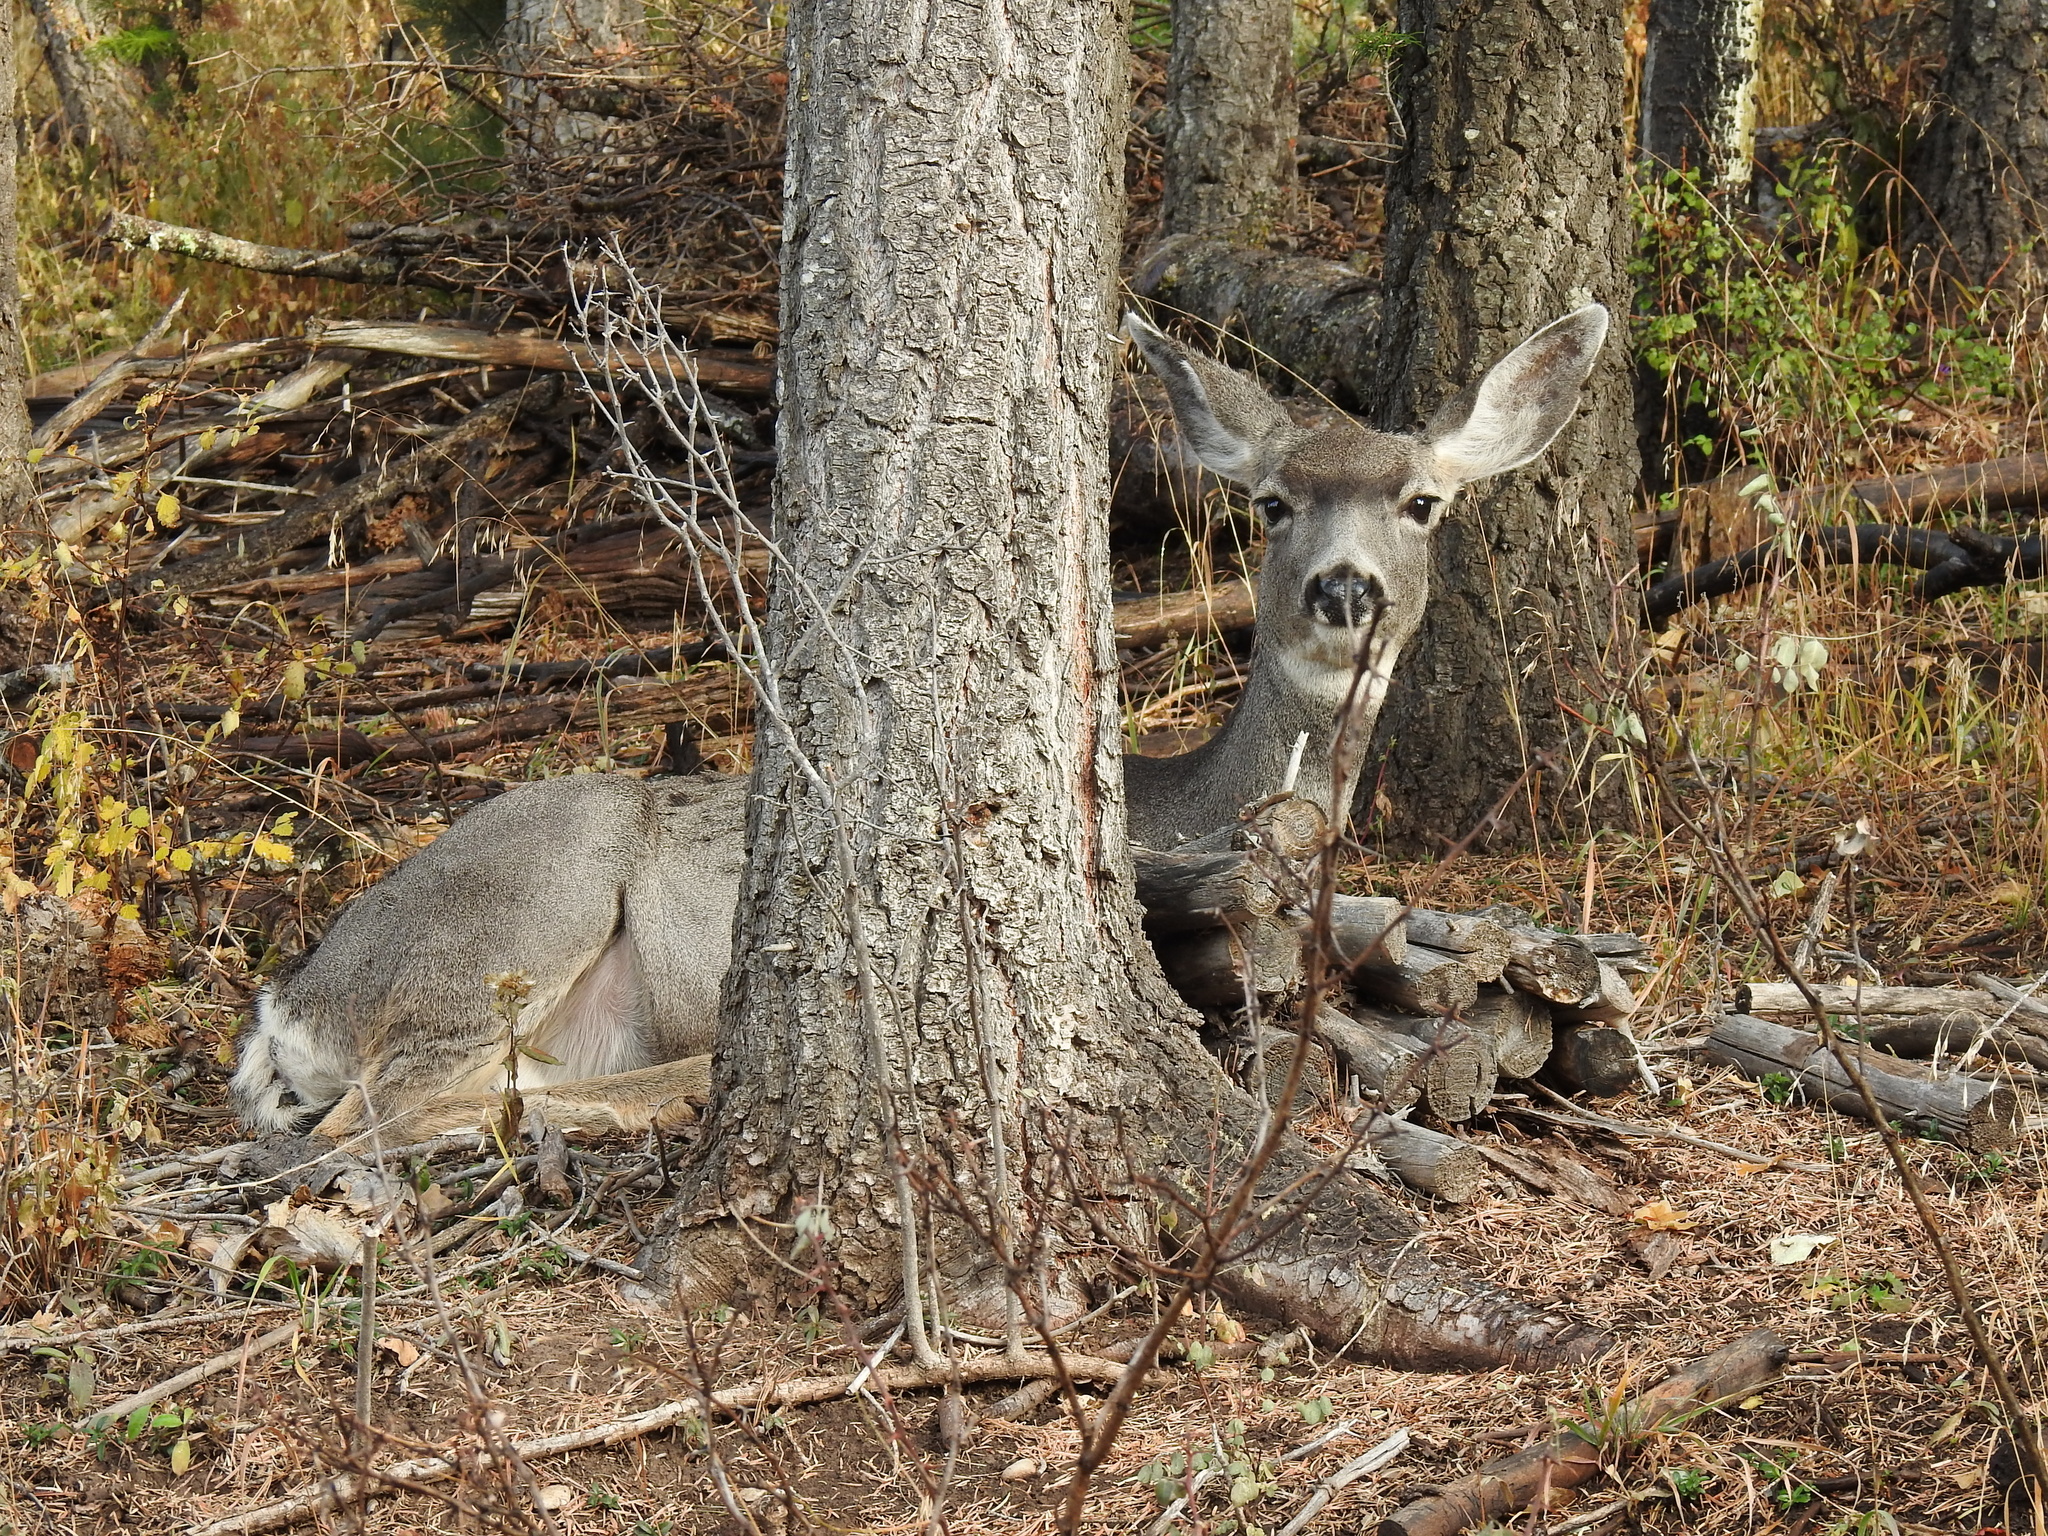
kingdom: Animalia
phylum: Chordata
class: Mammalia
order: Artiodactyla
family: Cervidae
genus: Odocoileus
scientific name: Odocoileus hemionus
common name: Mule deer
